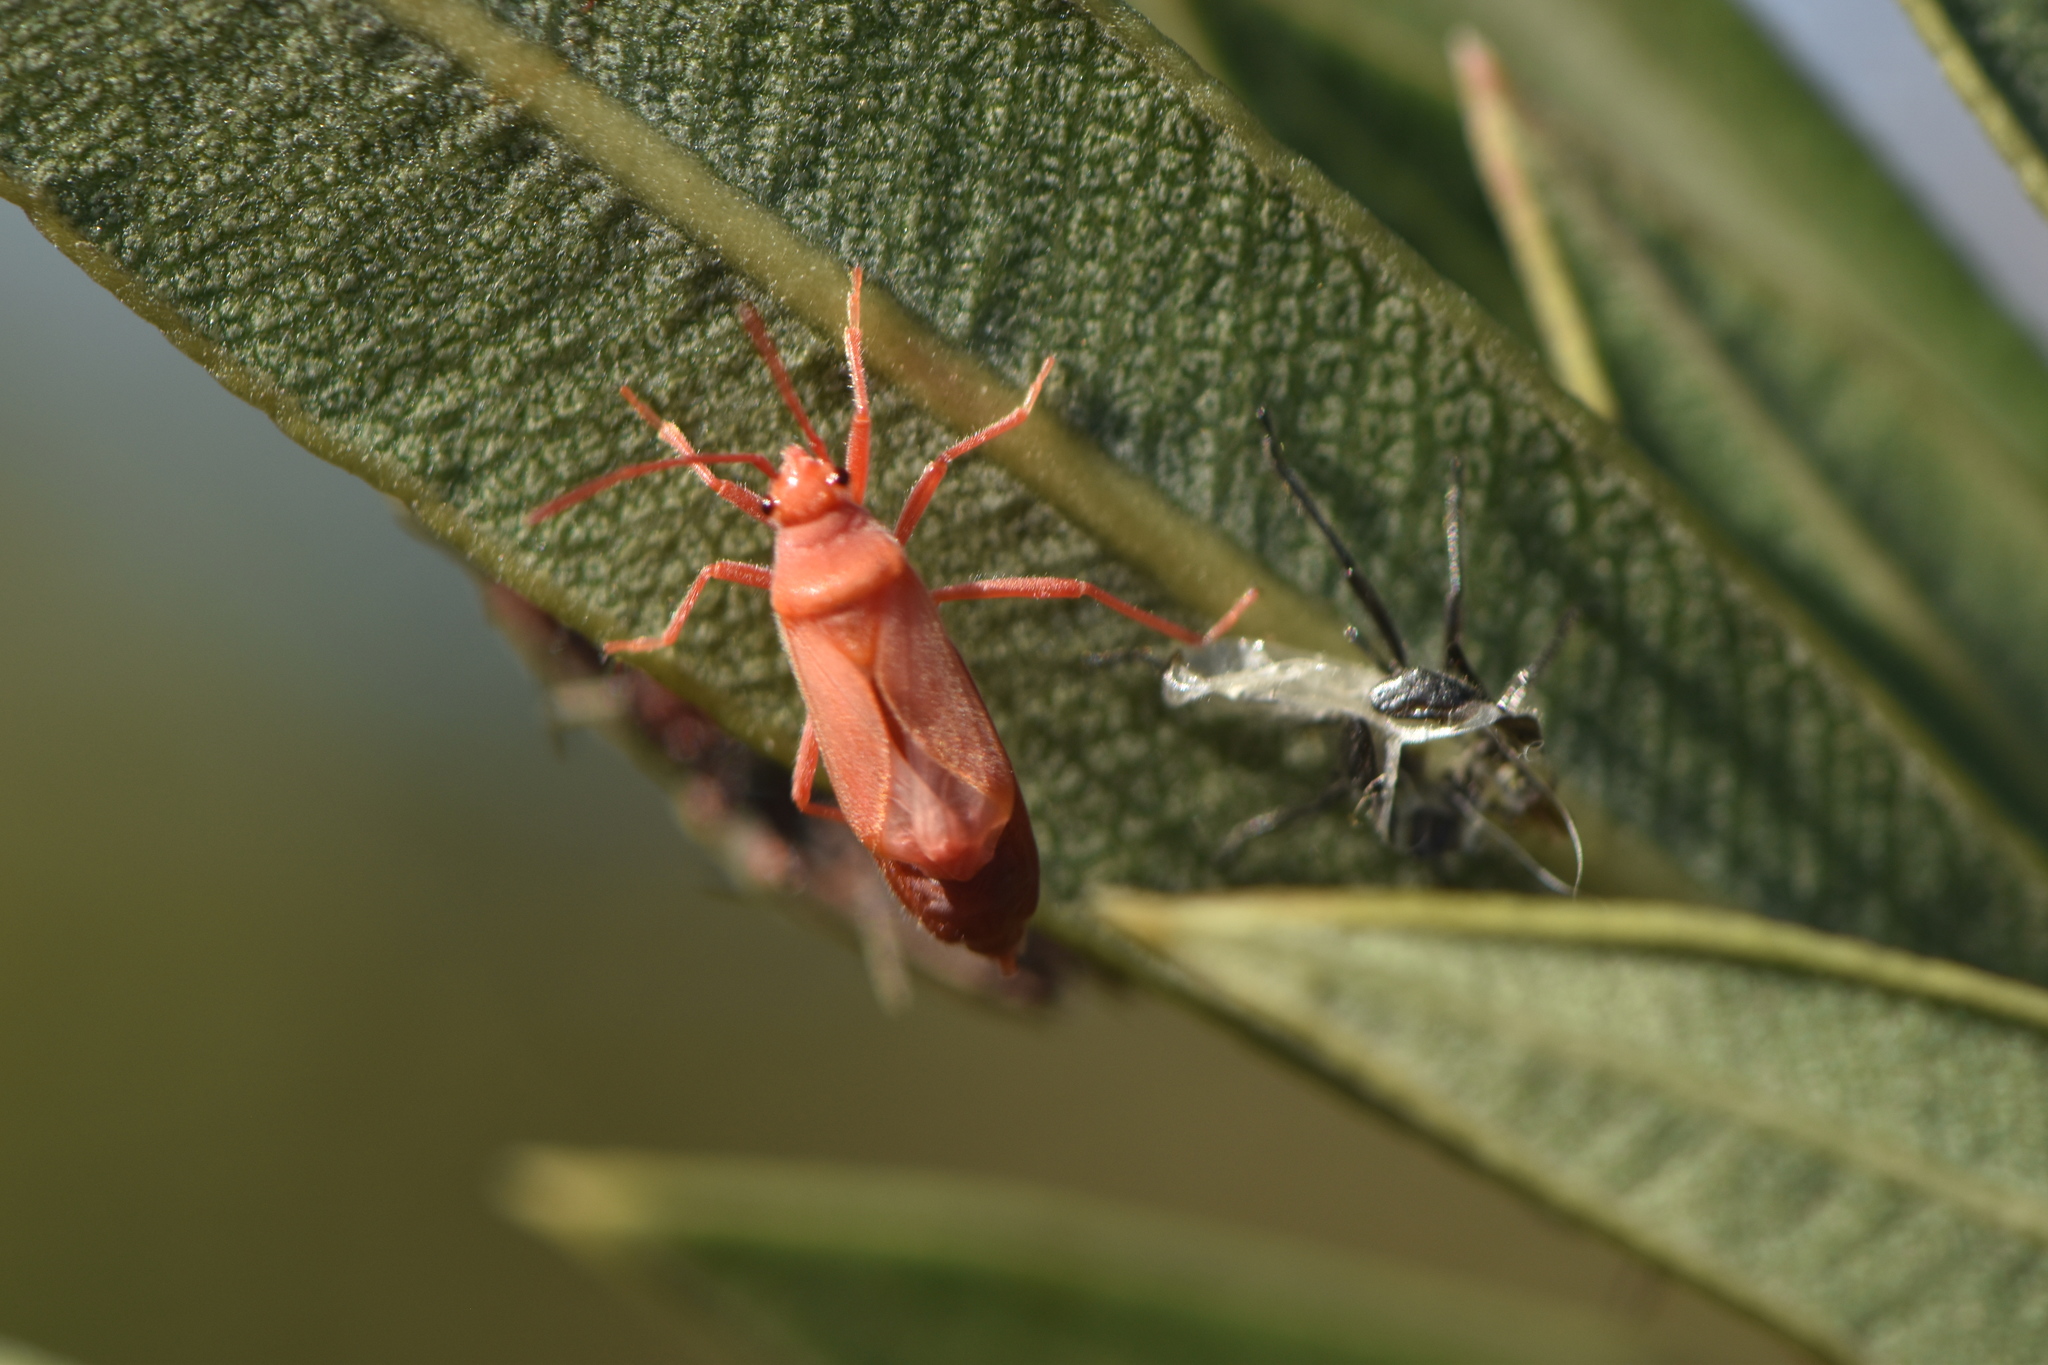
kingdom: Animalia
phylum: Arthropoda
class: Insecta
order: Hemiptera
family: Lygaeidae
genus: Caenocoris
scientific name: Caenocoris nerii
